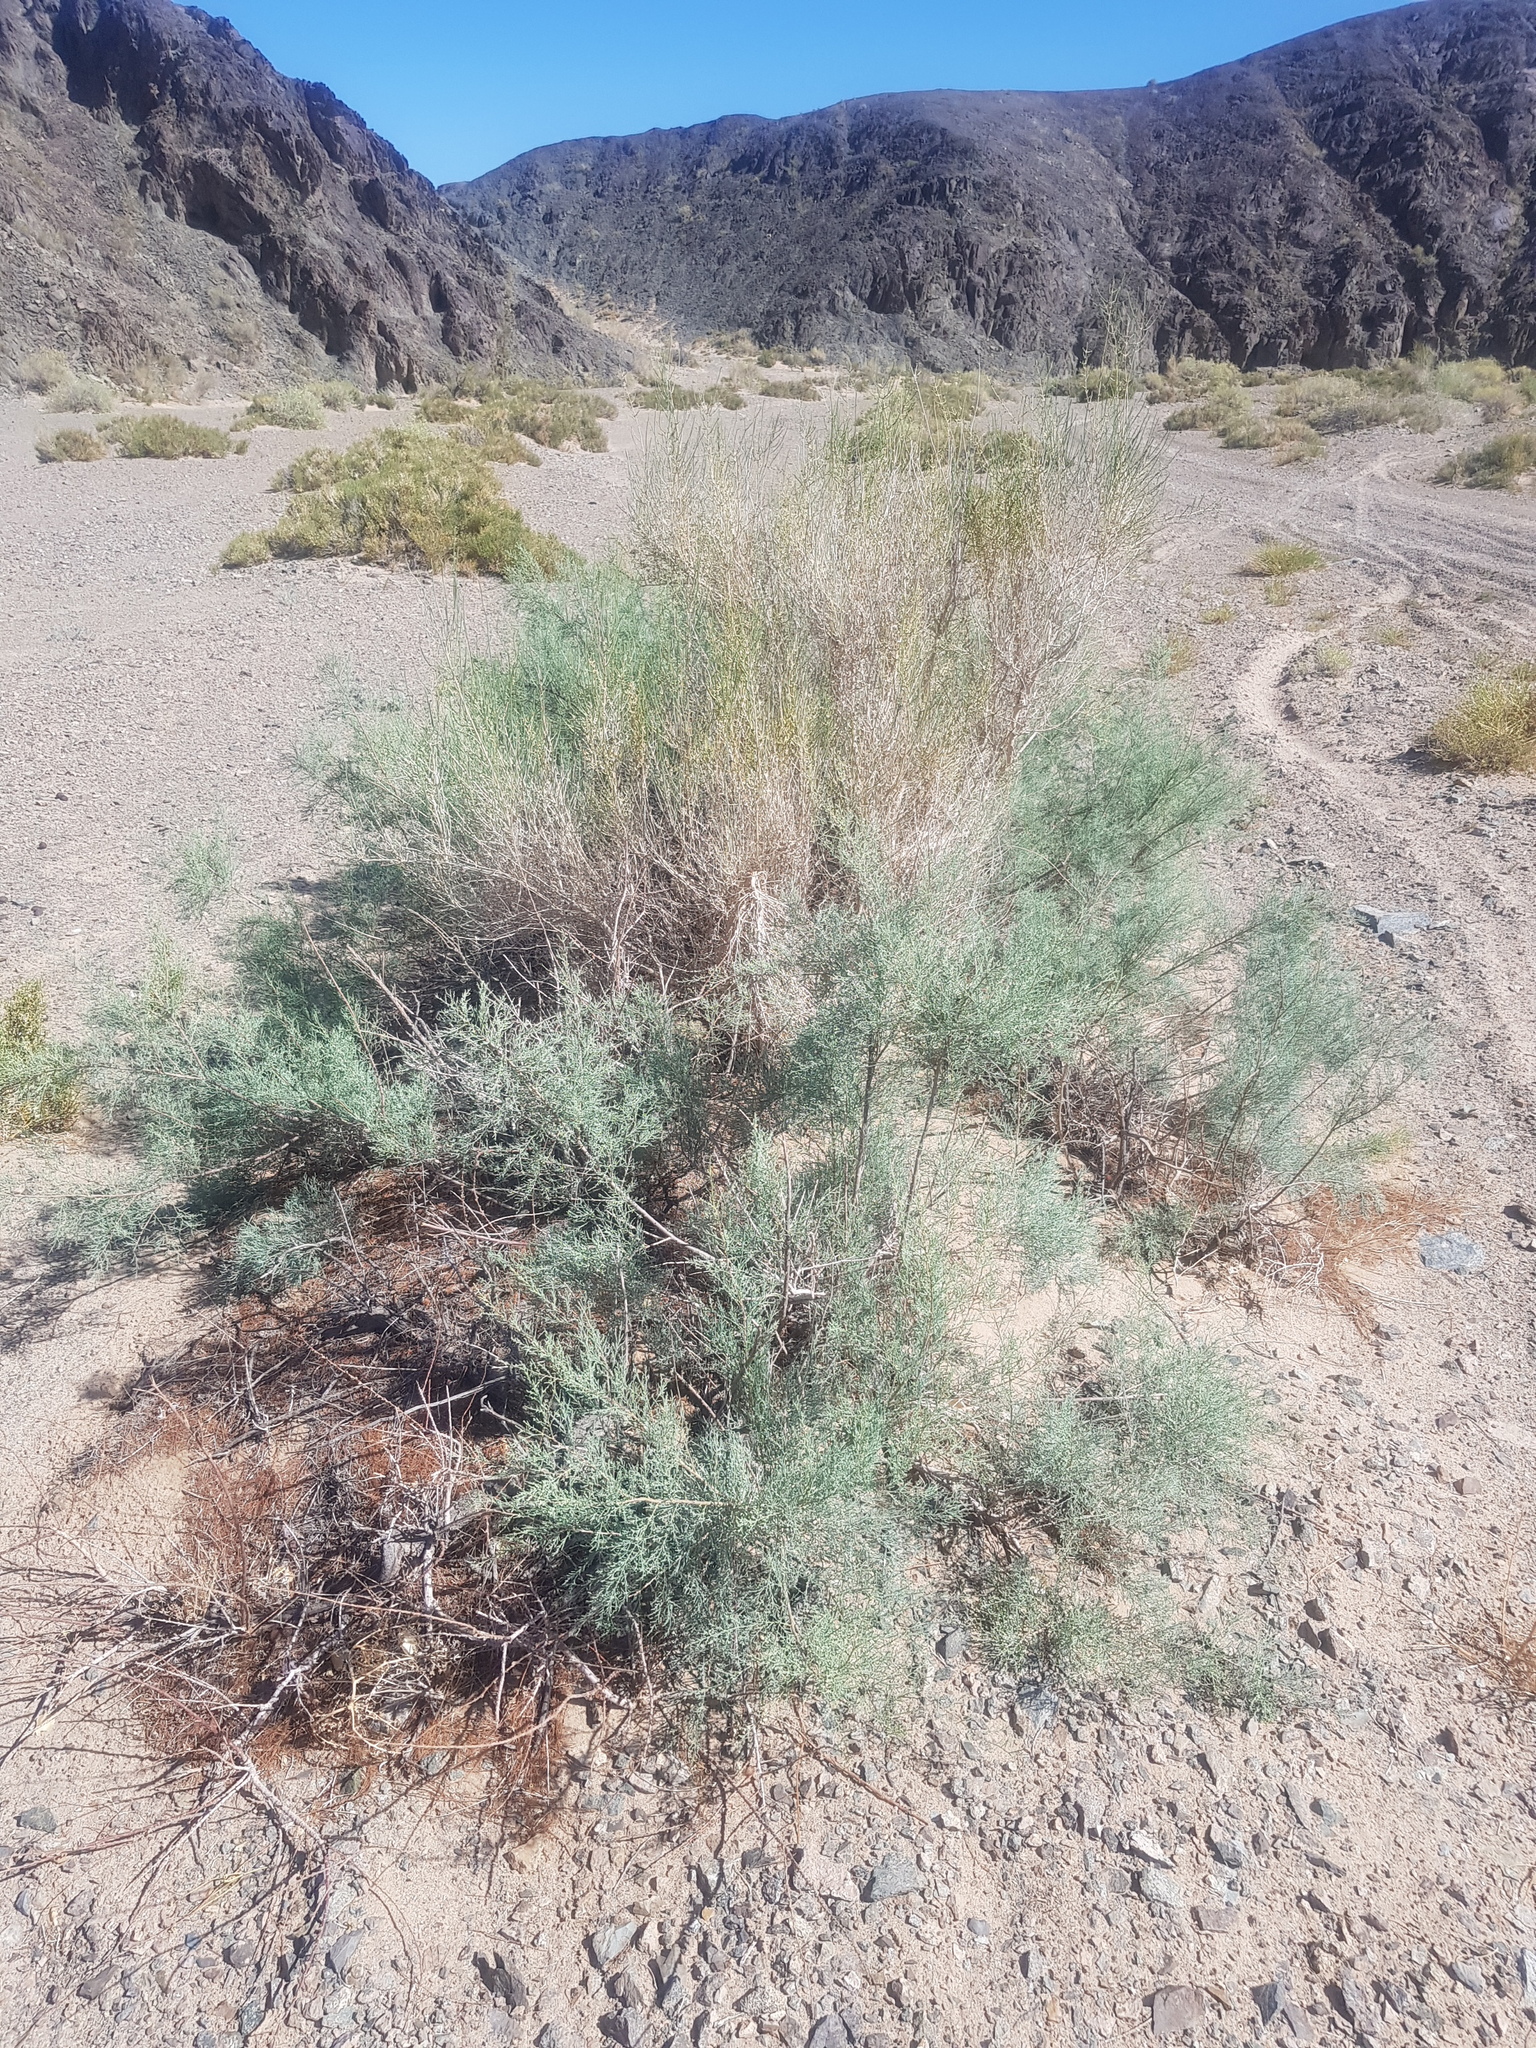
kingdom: Plantae
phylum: Tracheophyta
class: Magnoliopsida
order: Caryophyllales
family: Tamaricaceae
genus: Tamarix
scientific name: Tamarix karelinii
